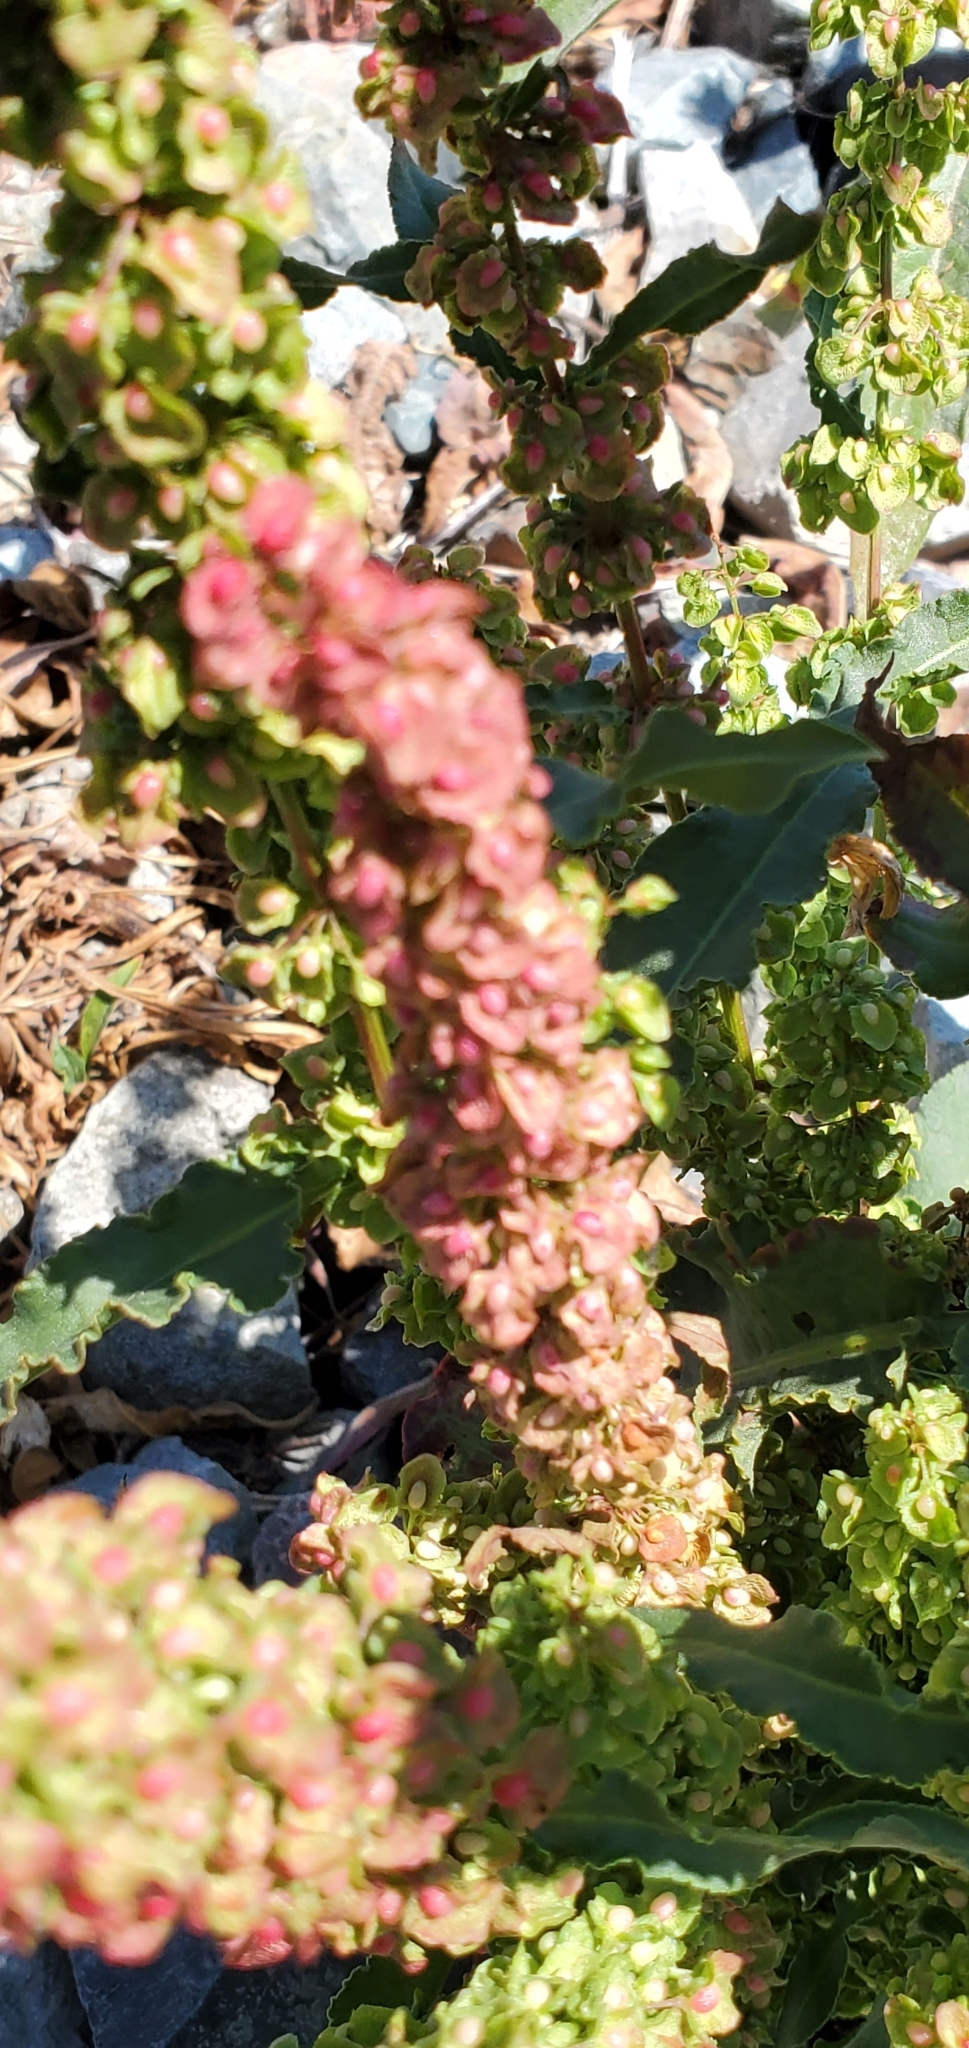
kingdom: Plantae
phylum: Tracheophyta
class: Magnoliopsida
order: Caryophyllales
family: Polygonaceae
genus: Rumex
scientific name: Rumex crispus
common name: Curled dock
